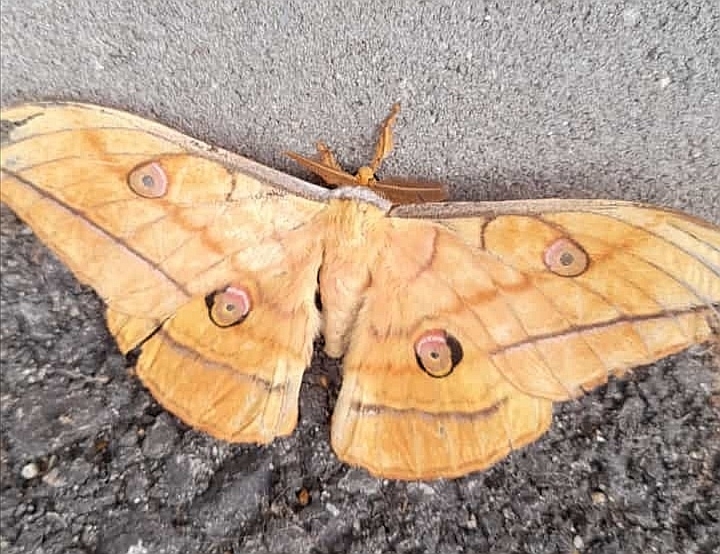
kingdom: Animalia
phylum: Arthropoda
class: Insecta
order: Lepidoptera
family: Saturniidae
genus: Antheraea
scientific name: Antheraea yamamai
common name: Japanese oak silk moth
